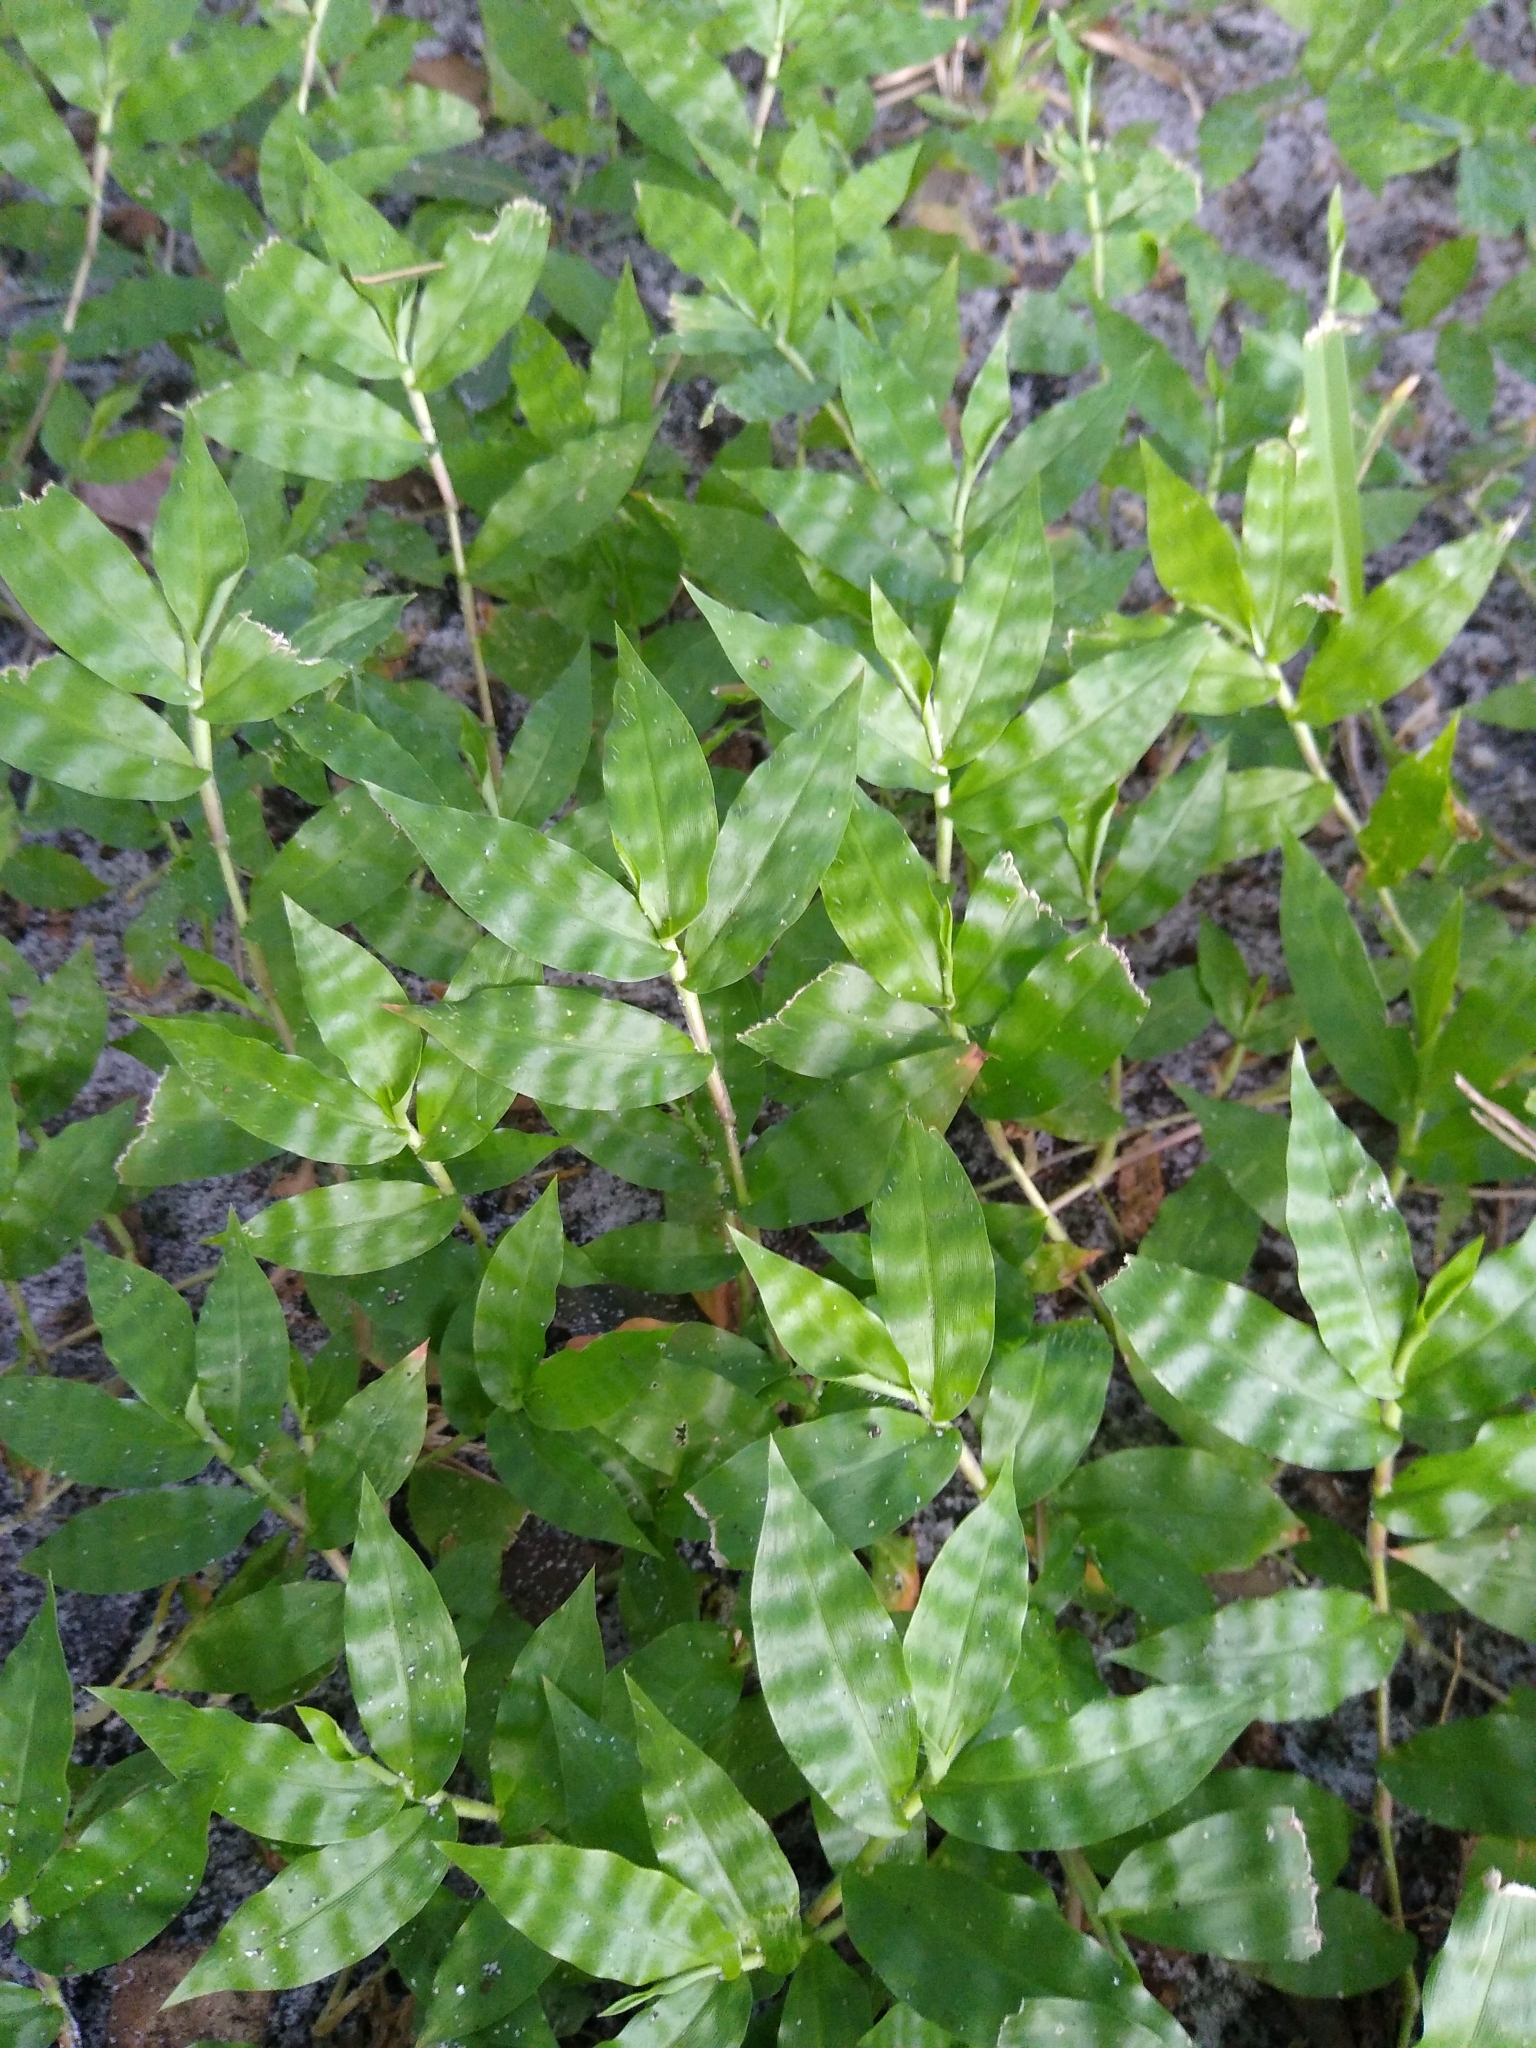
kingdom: Plantae
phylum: Tracheophyta
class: Liliopsida
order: Poales
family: Poaceae
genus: Oplismenus
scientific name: Oplismenus hirtellus
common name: Basketgrass
